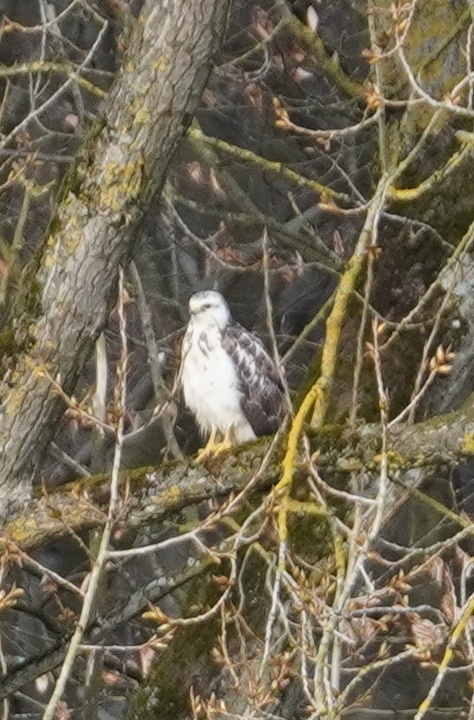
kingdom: Animalia
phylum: Chordata
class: Aves
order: Accipitriformes
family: Accipitridae
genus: Buteo
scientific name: Buteo buteo
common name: Common buzzard
